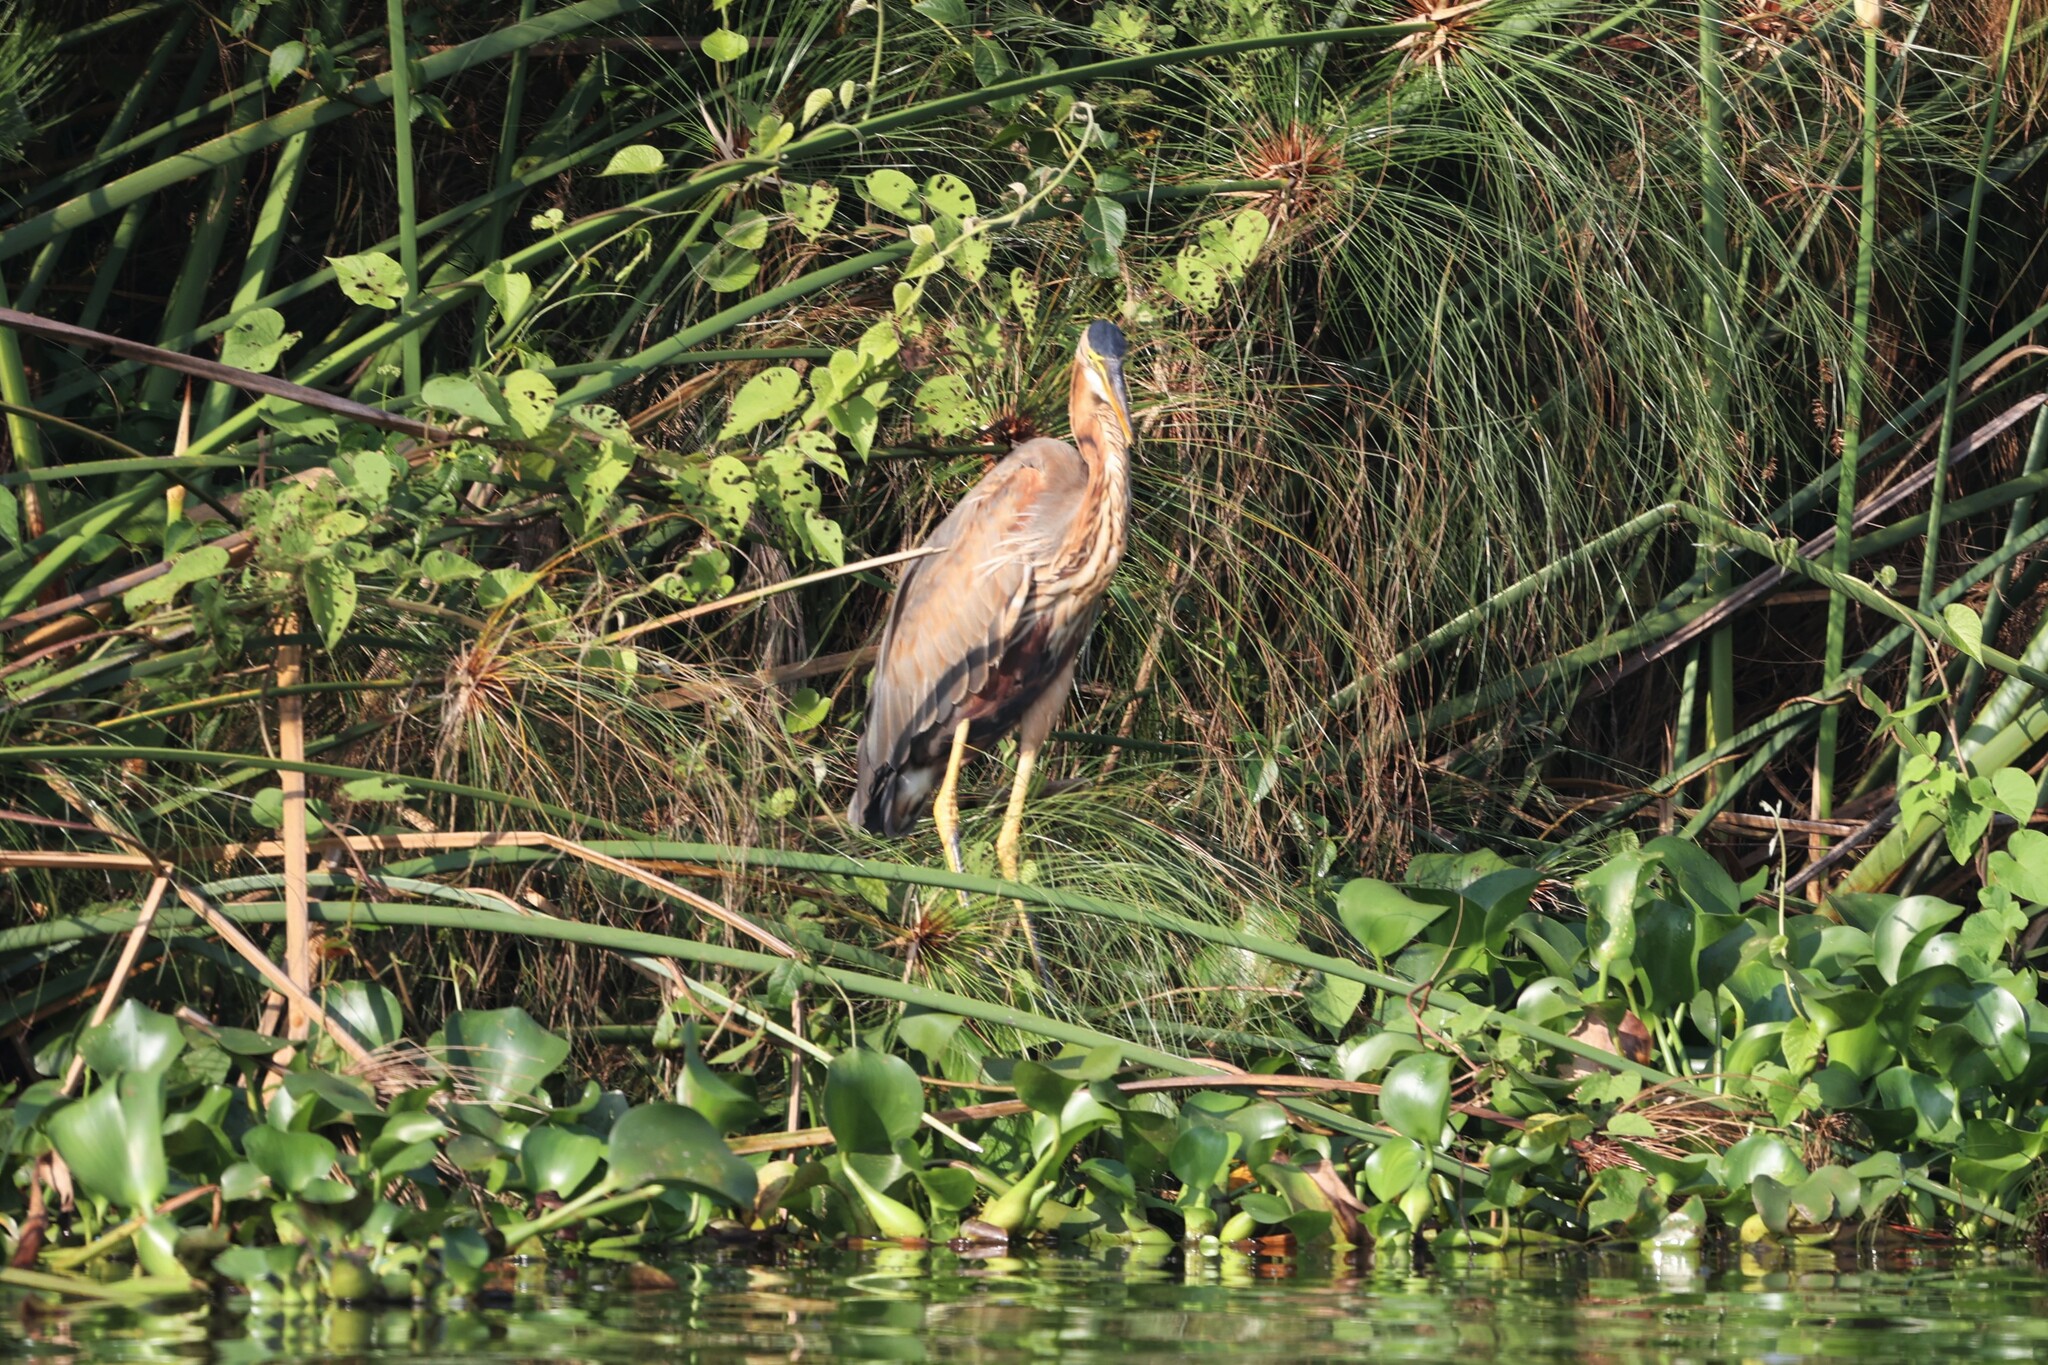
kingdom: Animalia
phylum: Chordata
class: Aves
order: Pelecaniformes
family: Ardeidae
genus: Ardea
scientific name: Ardea purpurea
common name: Purple heron
